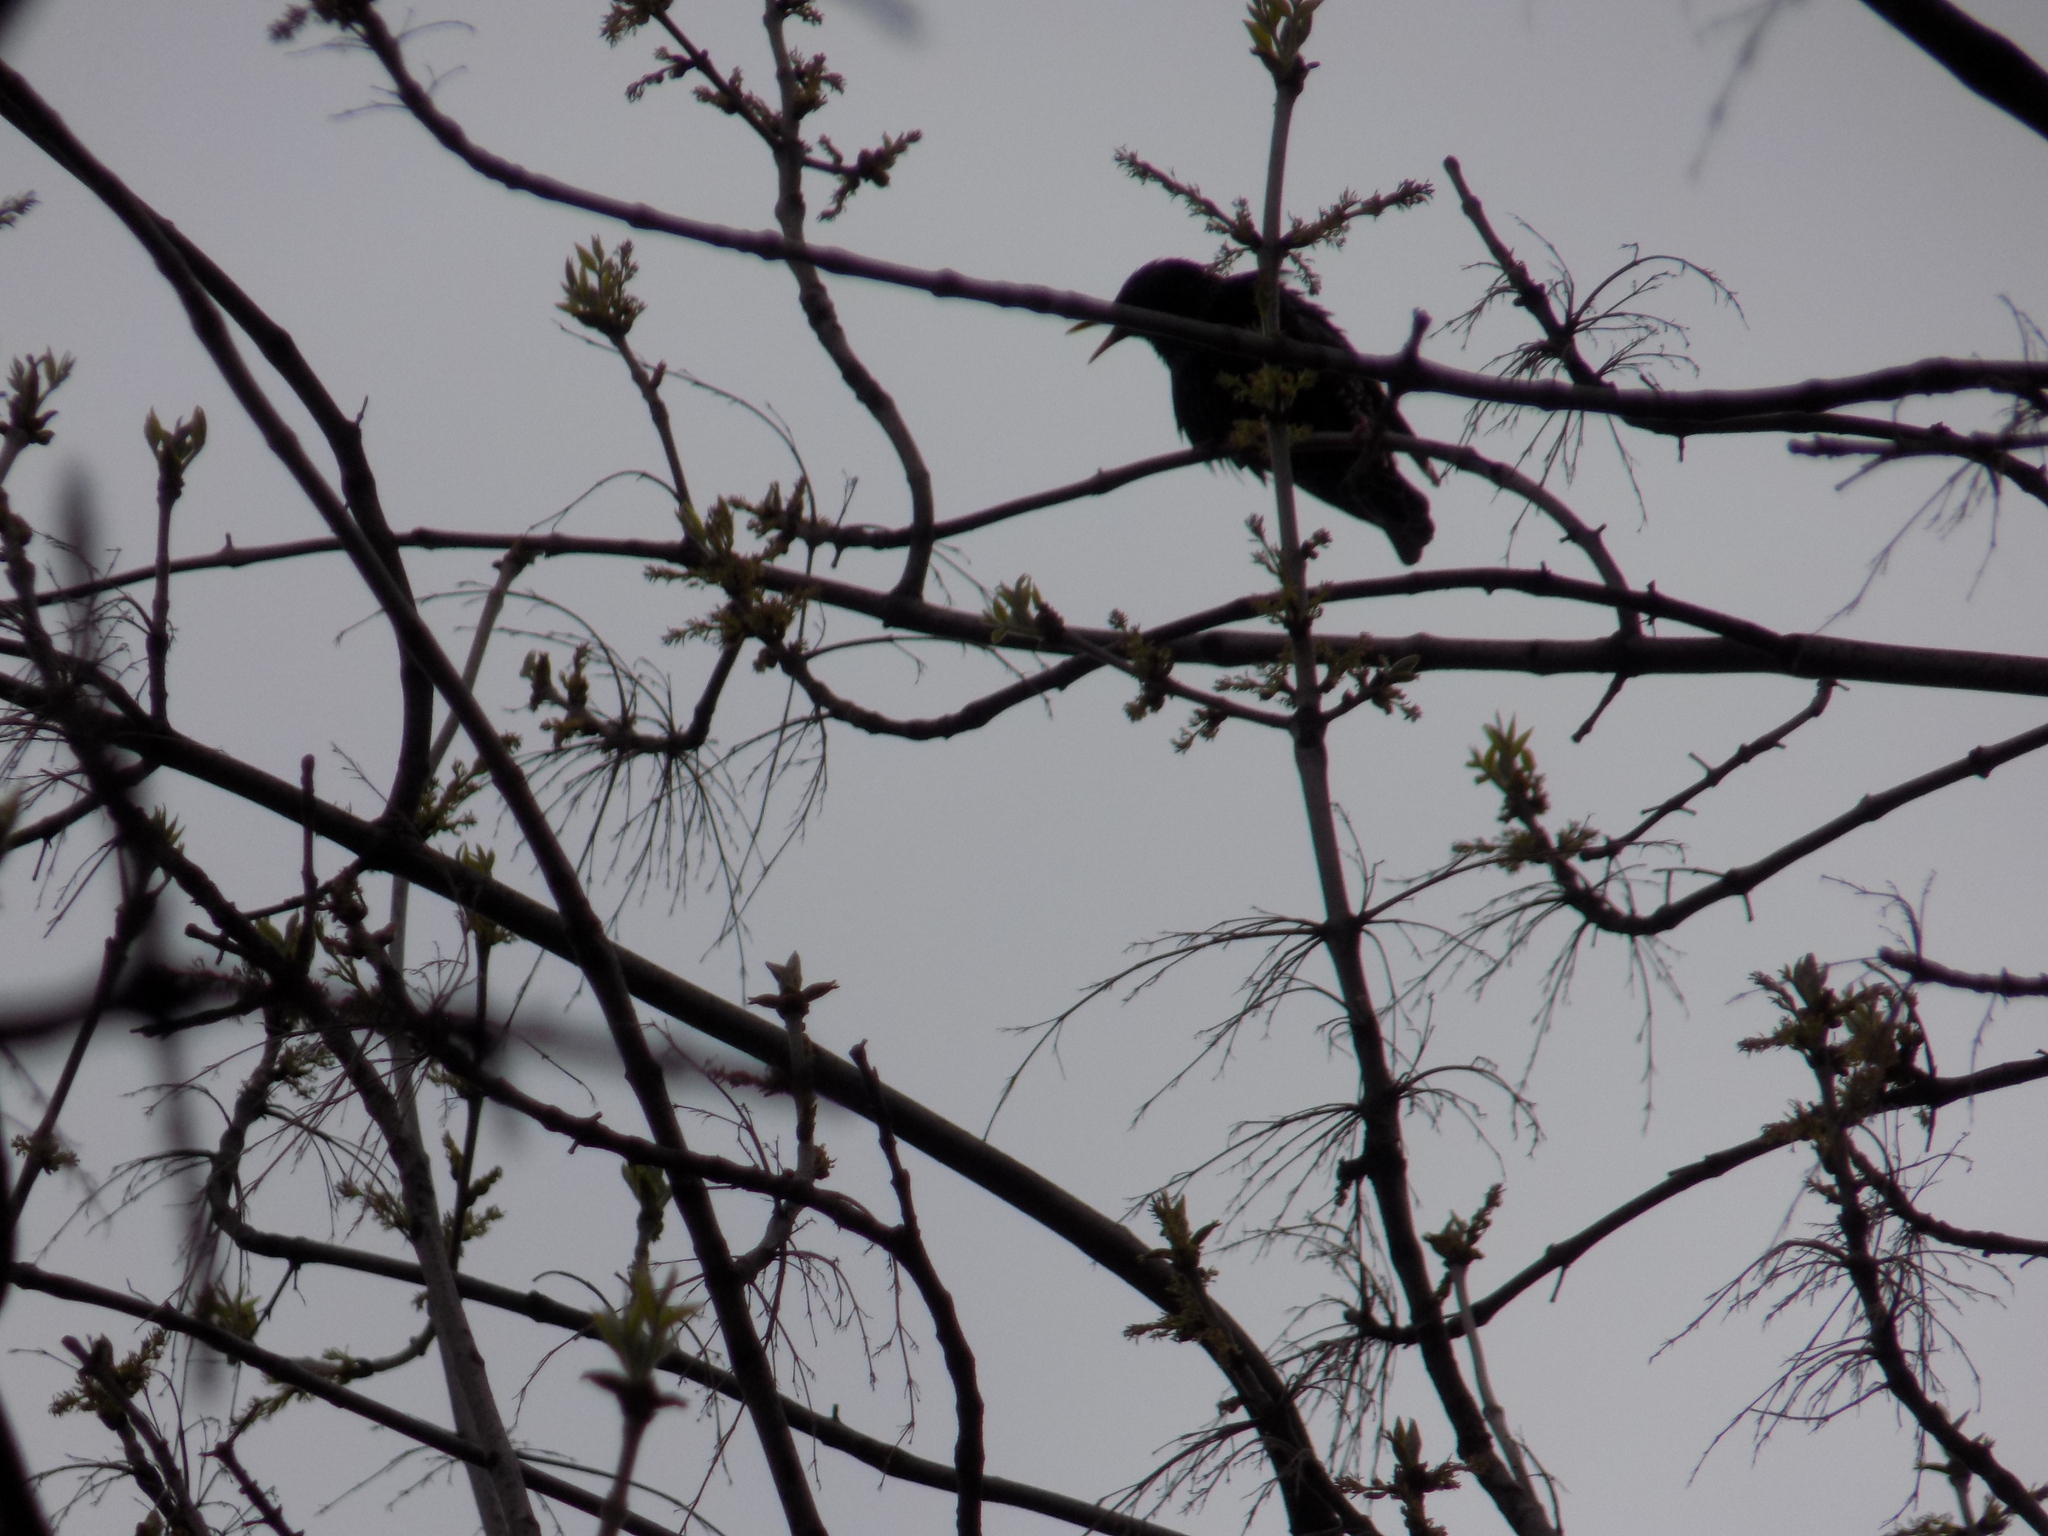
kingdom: Animalia
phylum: Chordata
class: Aves
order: Passeriformes
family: Sturnidae
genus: Sturnus
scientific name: Sturnus vulgaris
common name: Common starling
